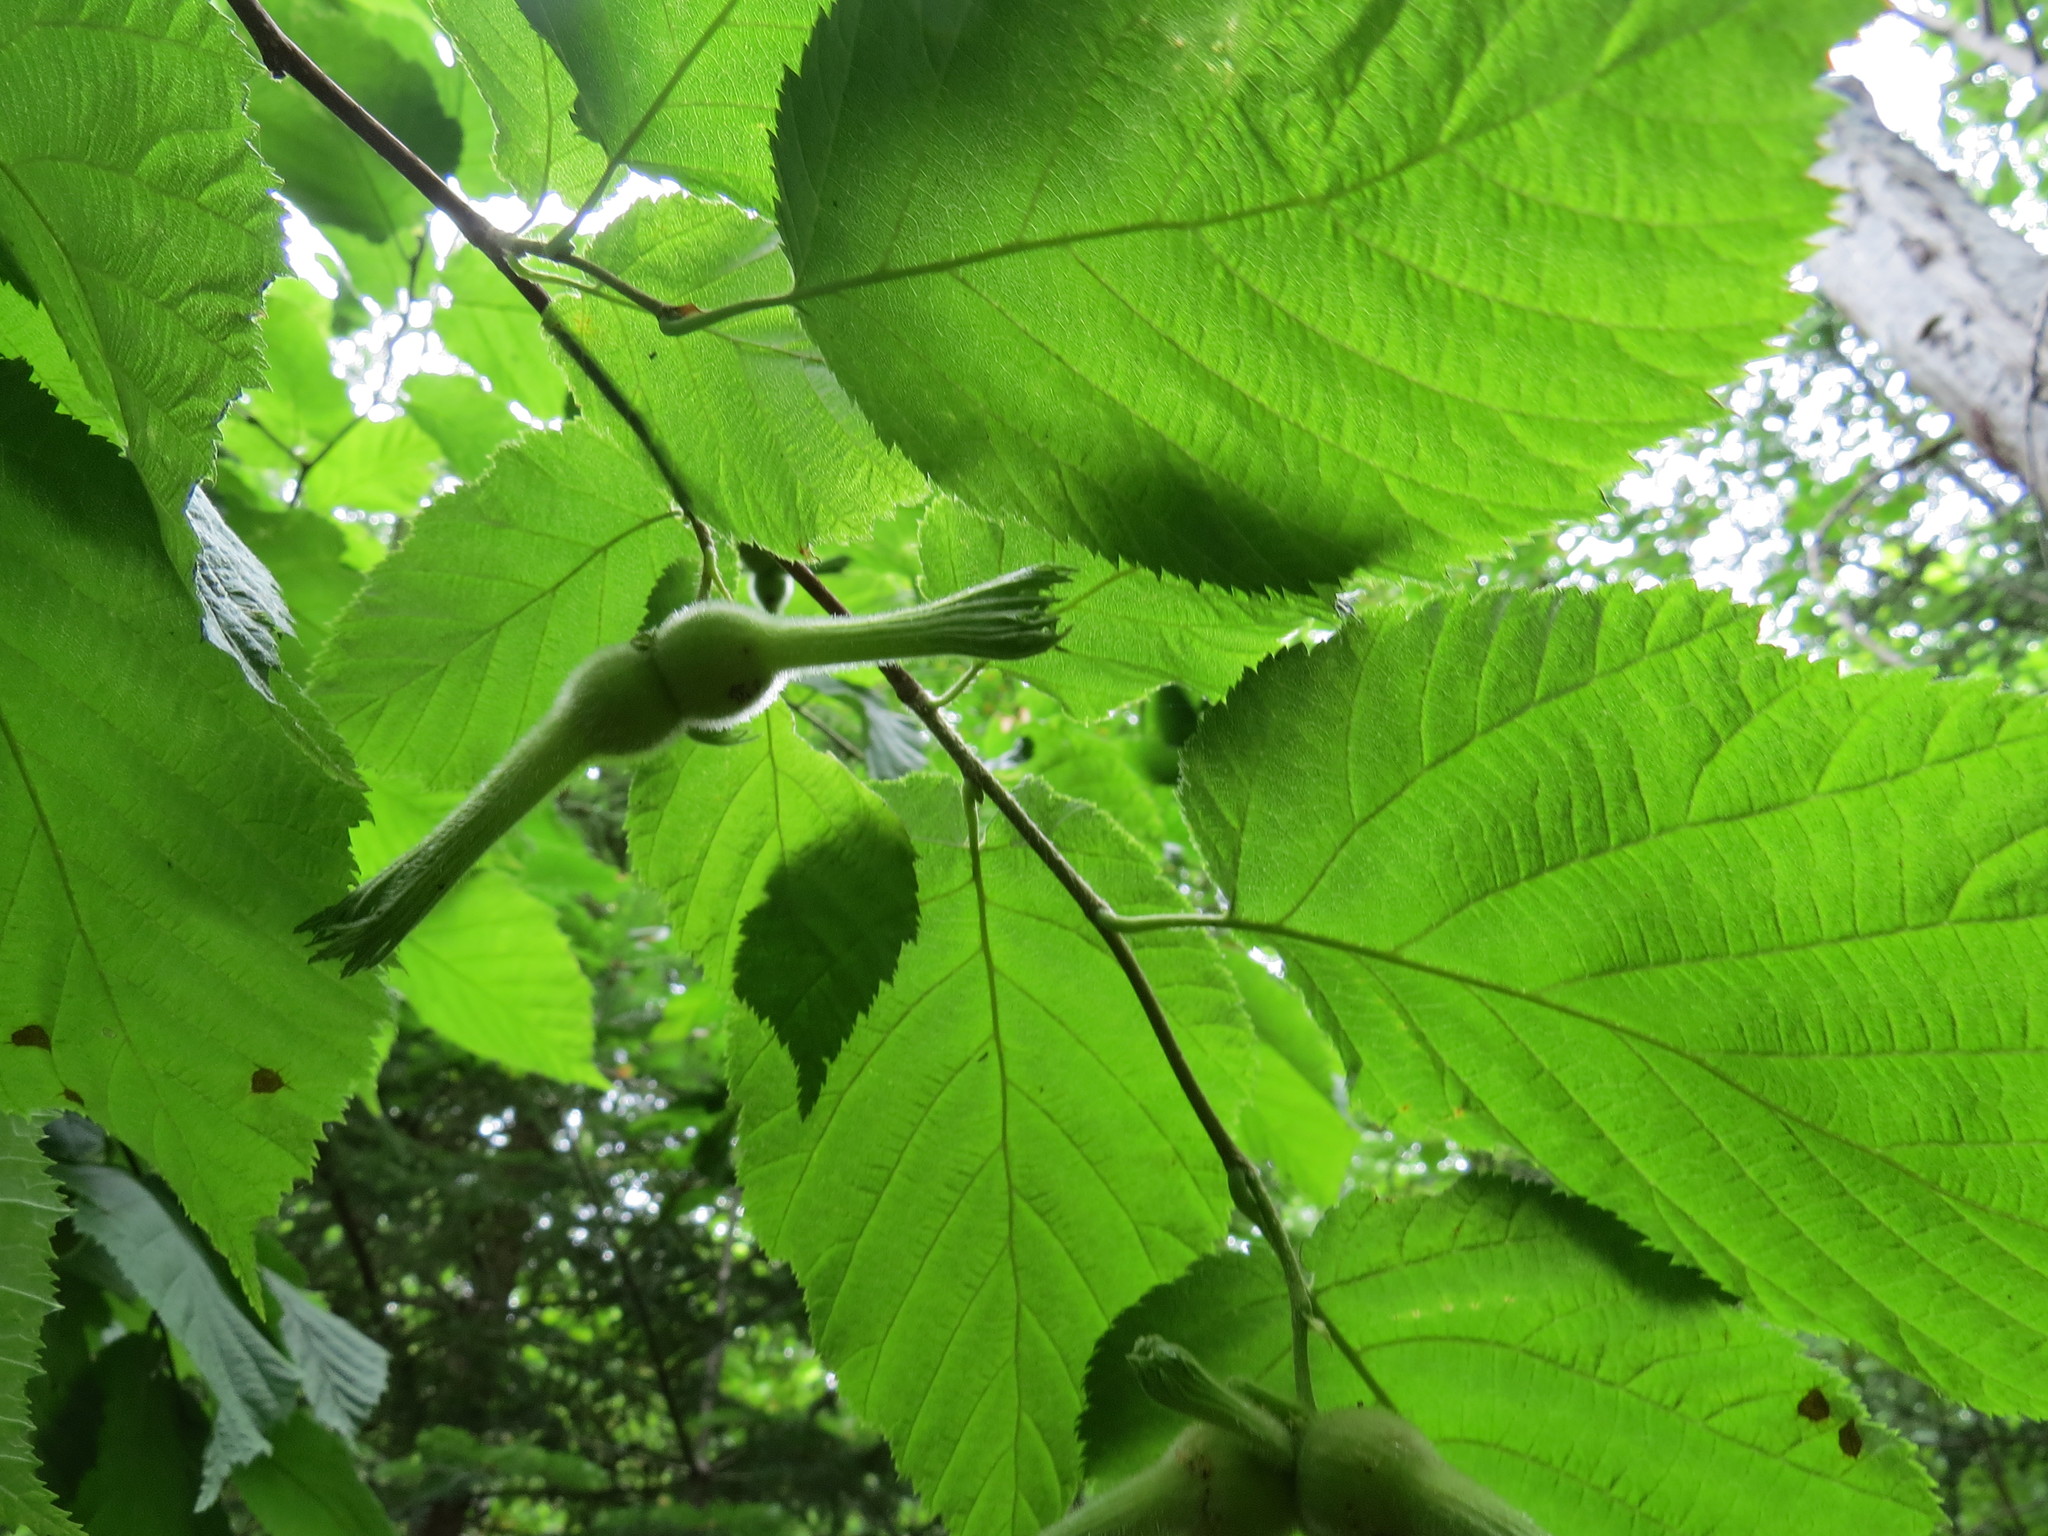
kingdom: Plantae
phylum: Tracheophyta
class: Magnoliopsida
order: Fagales
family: Betulaceae
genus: Corylus
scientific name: Corylus cornuta
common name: Beaked hazel
